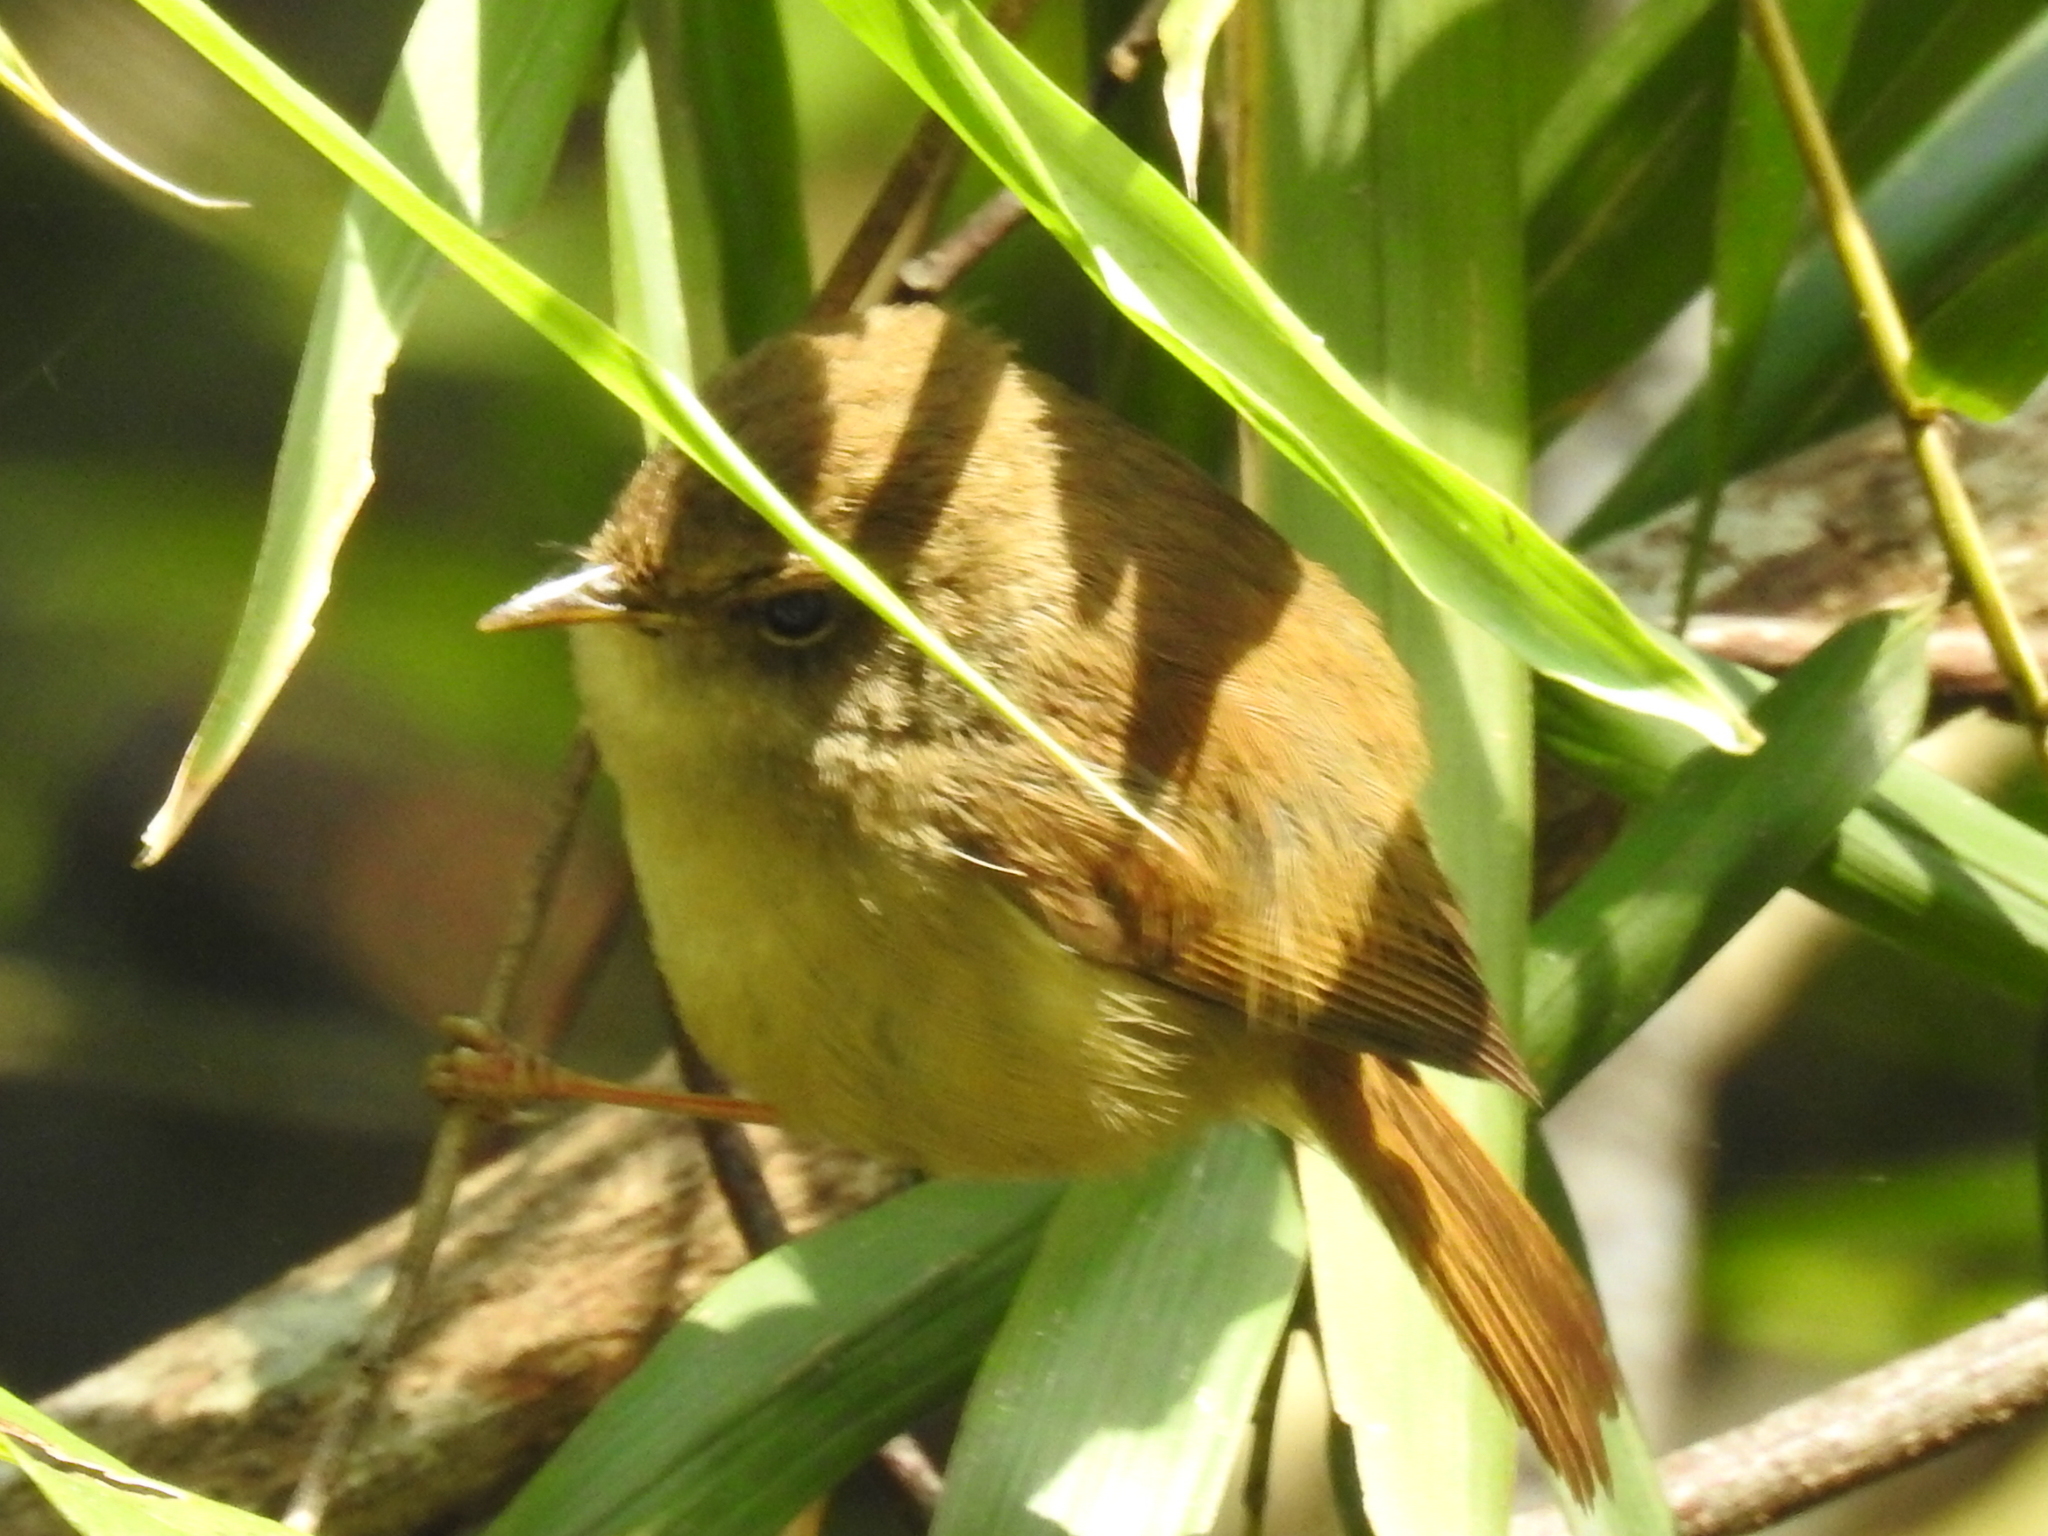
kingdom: Animalia
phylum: Chordata
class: Aves
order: Passeriformes
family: Cettiidae
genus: Horornis
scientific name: Horornis fortipes
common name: Brown-flanked bush warbler
